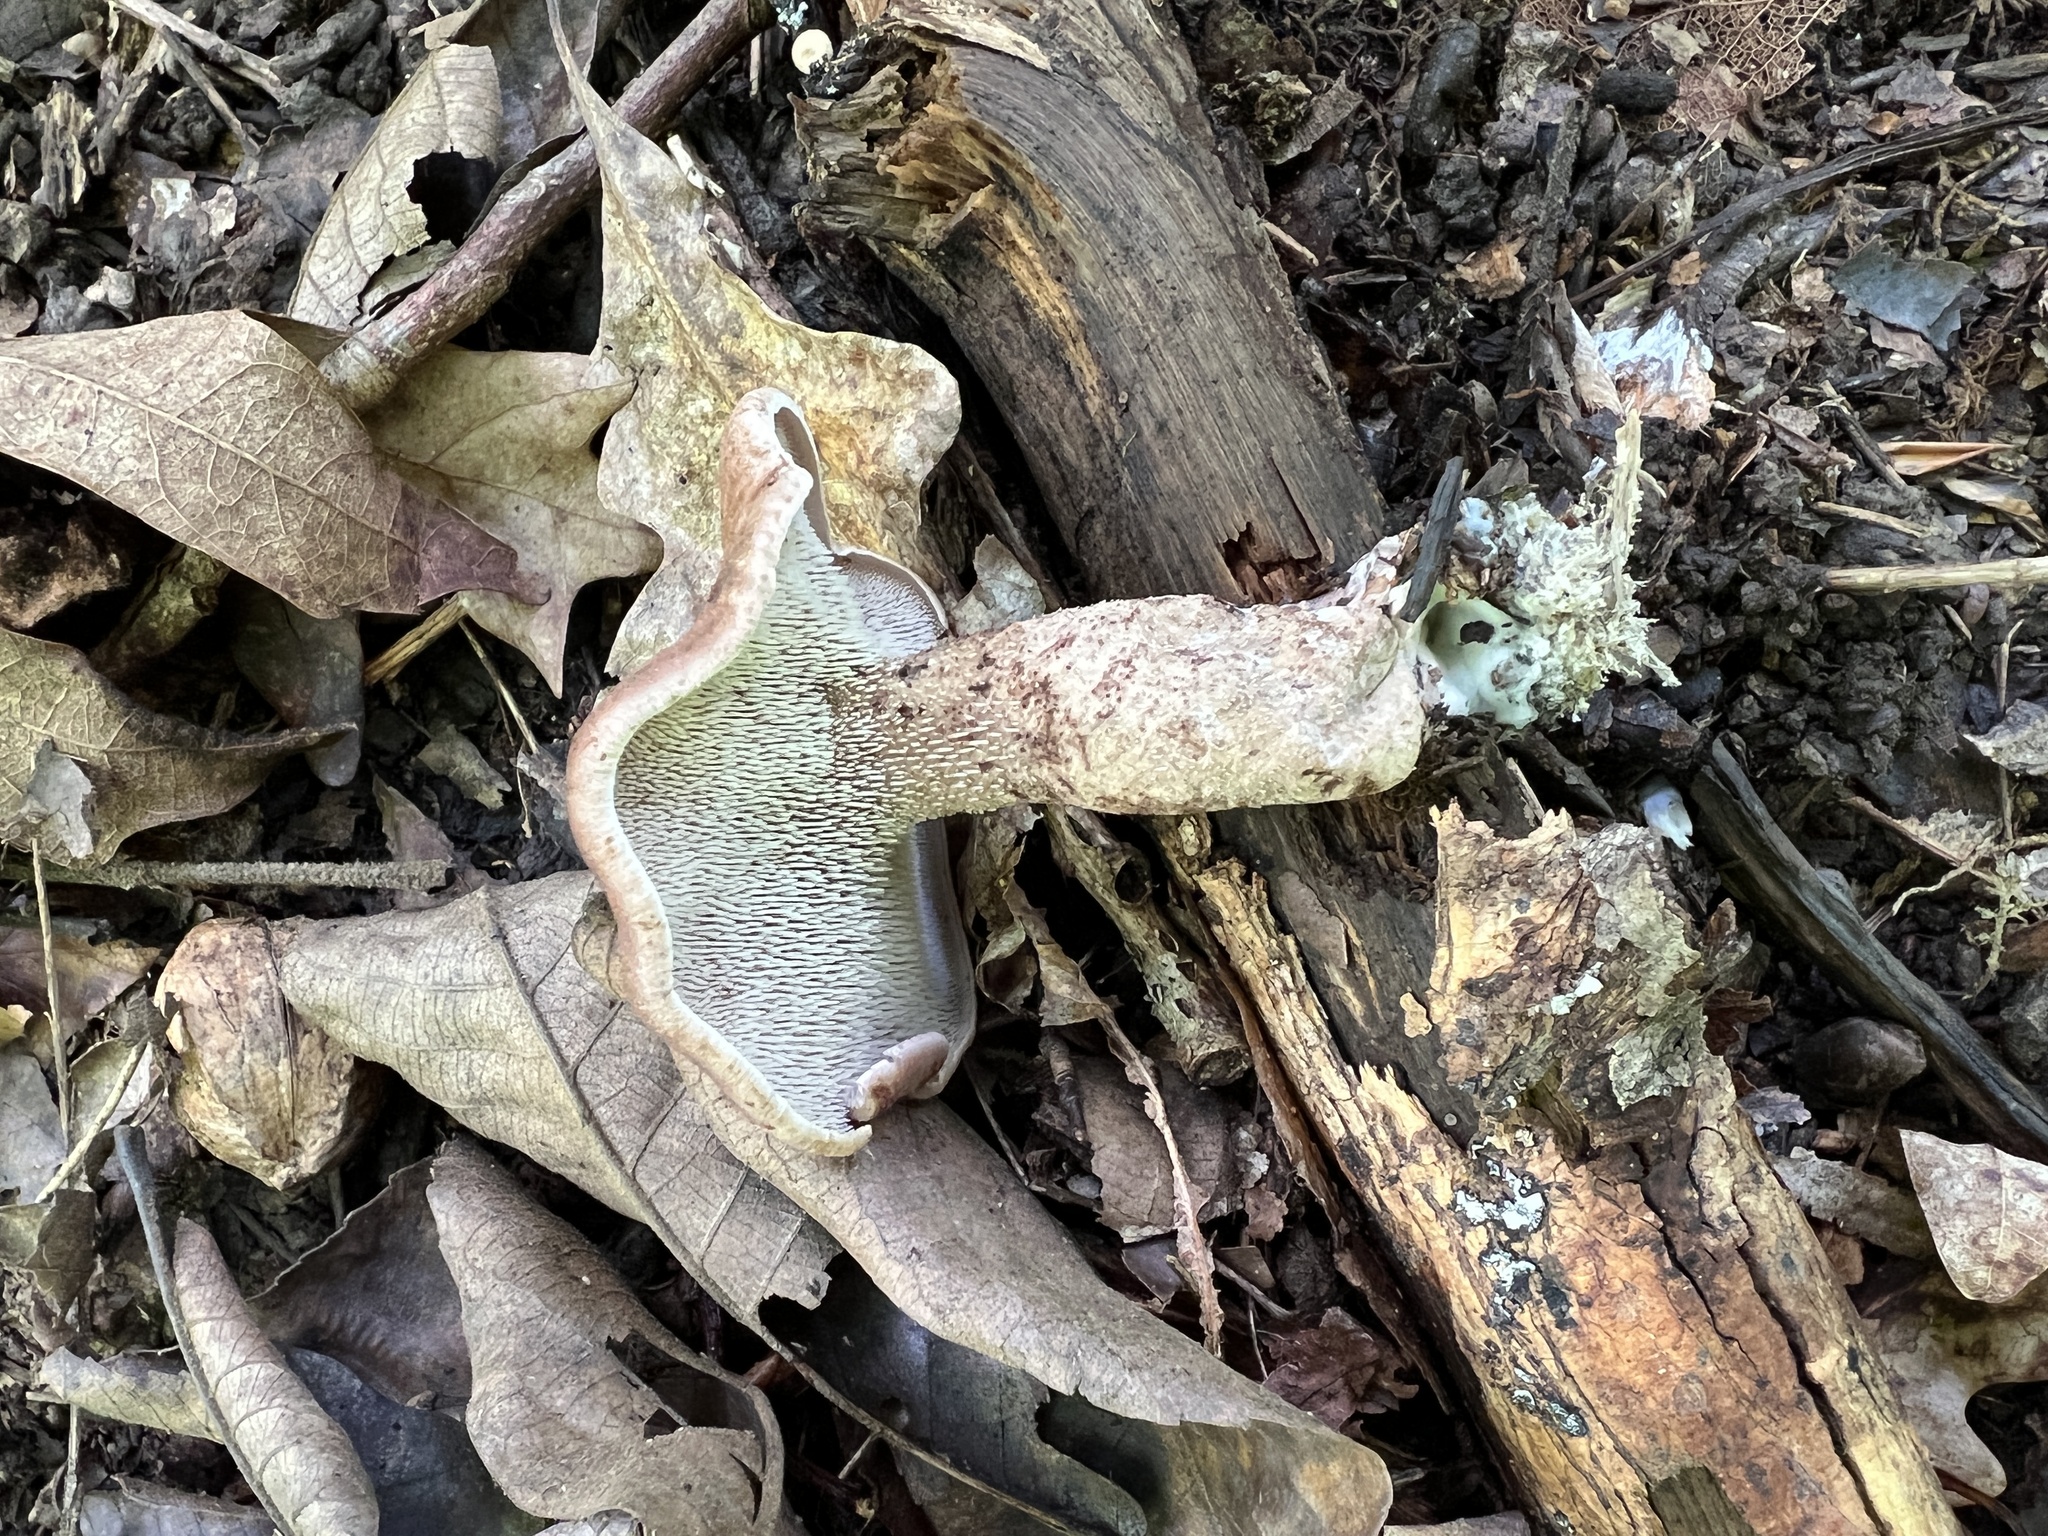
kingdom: Fungi
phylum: Basidiomycota
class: Agaricomycetes
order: Thelephorales
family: Bankeraceae
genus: Hydnellum
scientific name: Hydnellum scabrosum
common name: Bitter tooth
